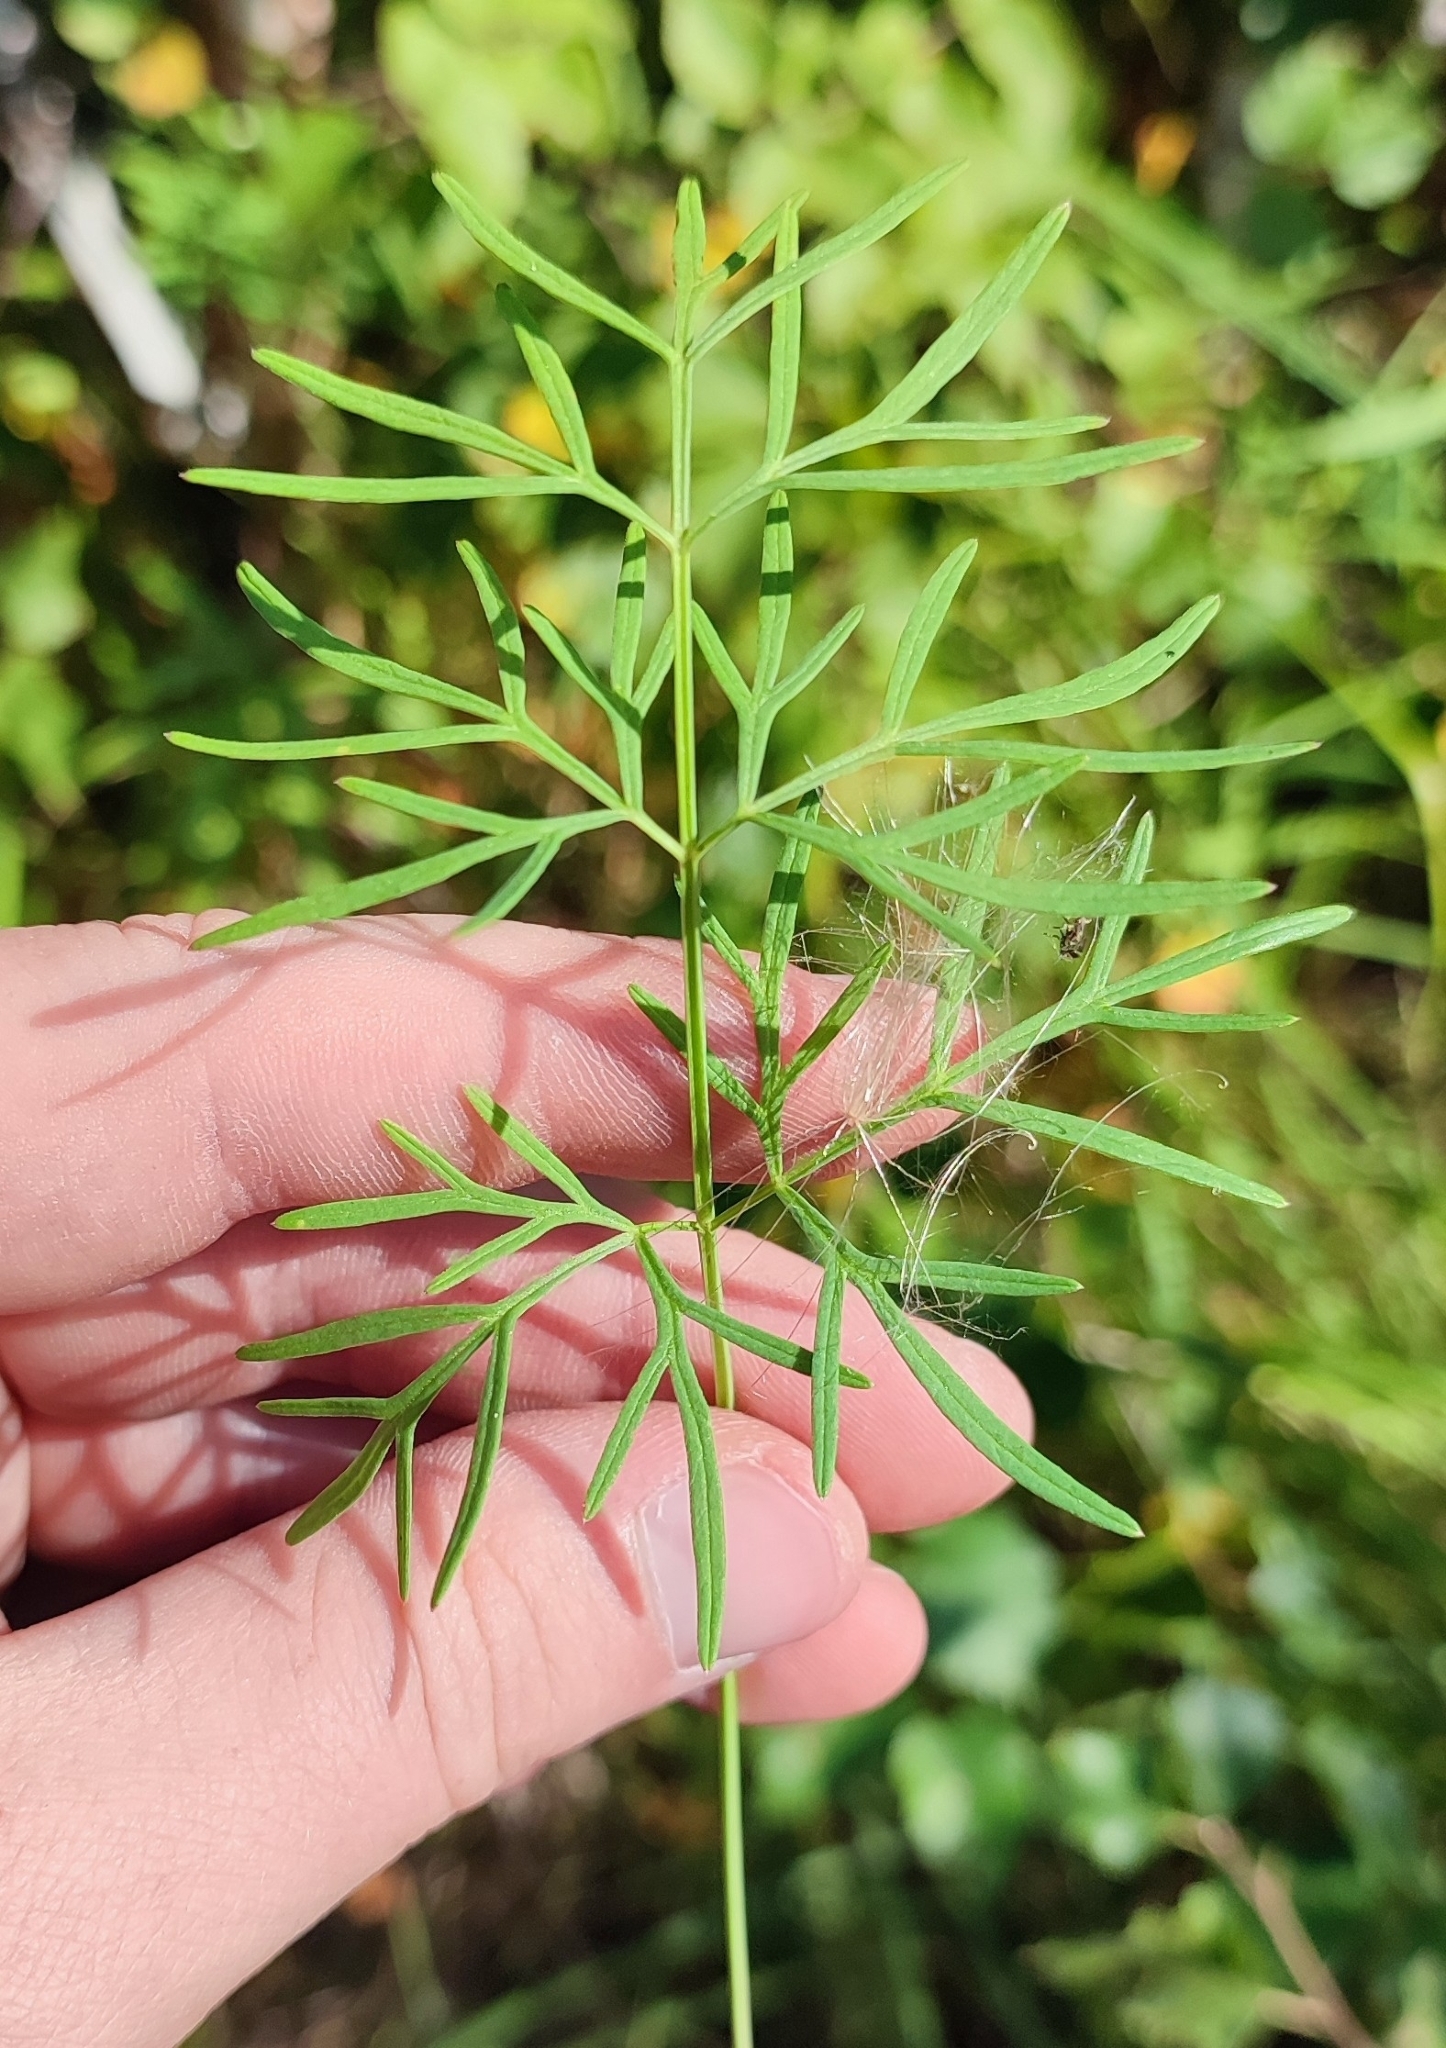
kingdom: Plantae
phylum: Tracheophyta
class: Magnoliopsida
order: Apiales
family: Apiaceae
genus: Kadenia
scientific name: Kadenia dubia
